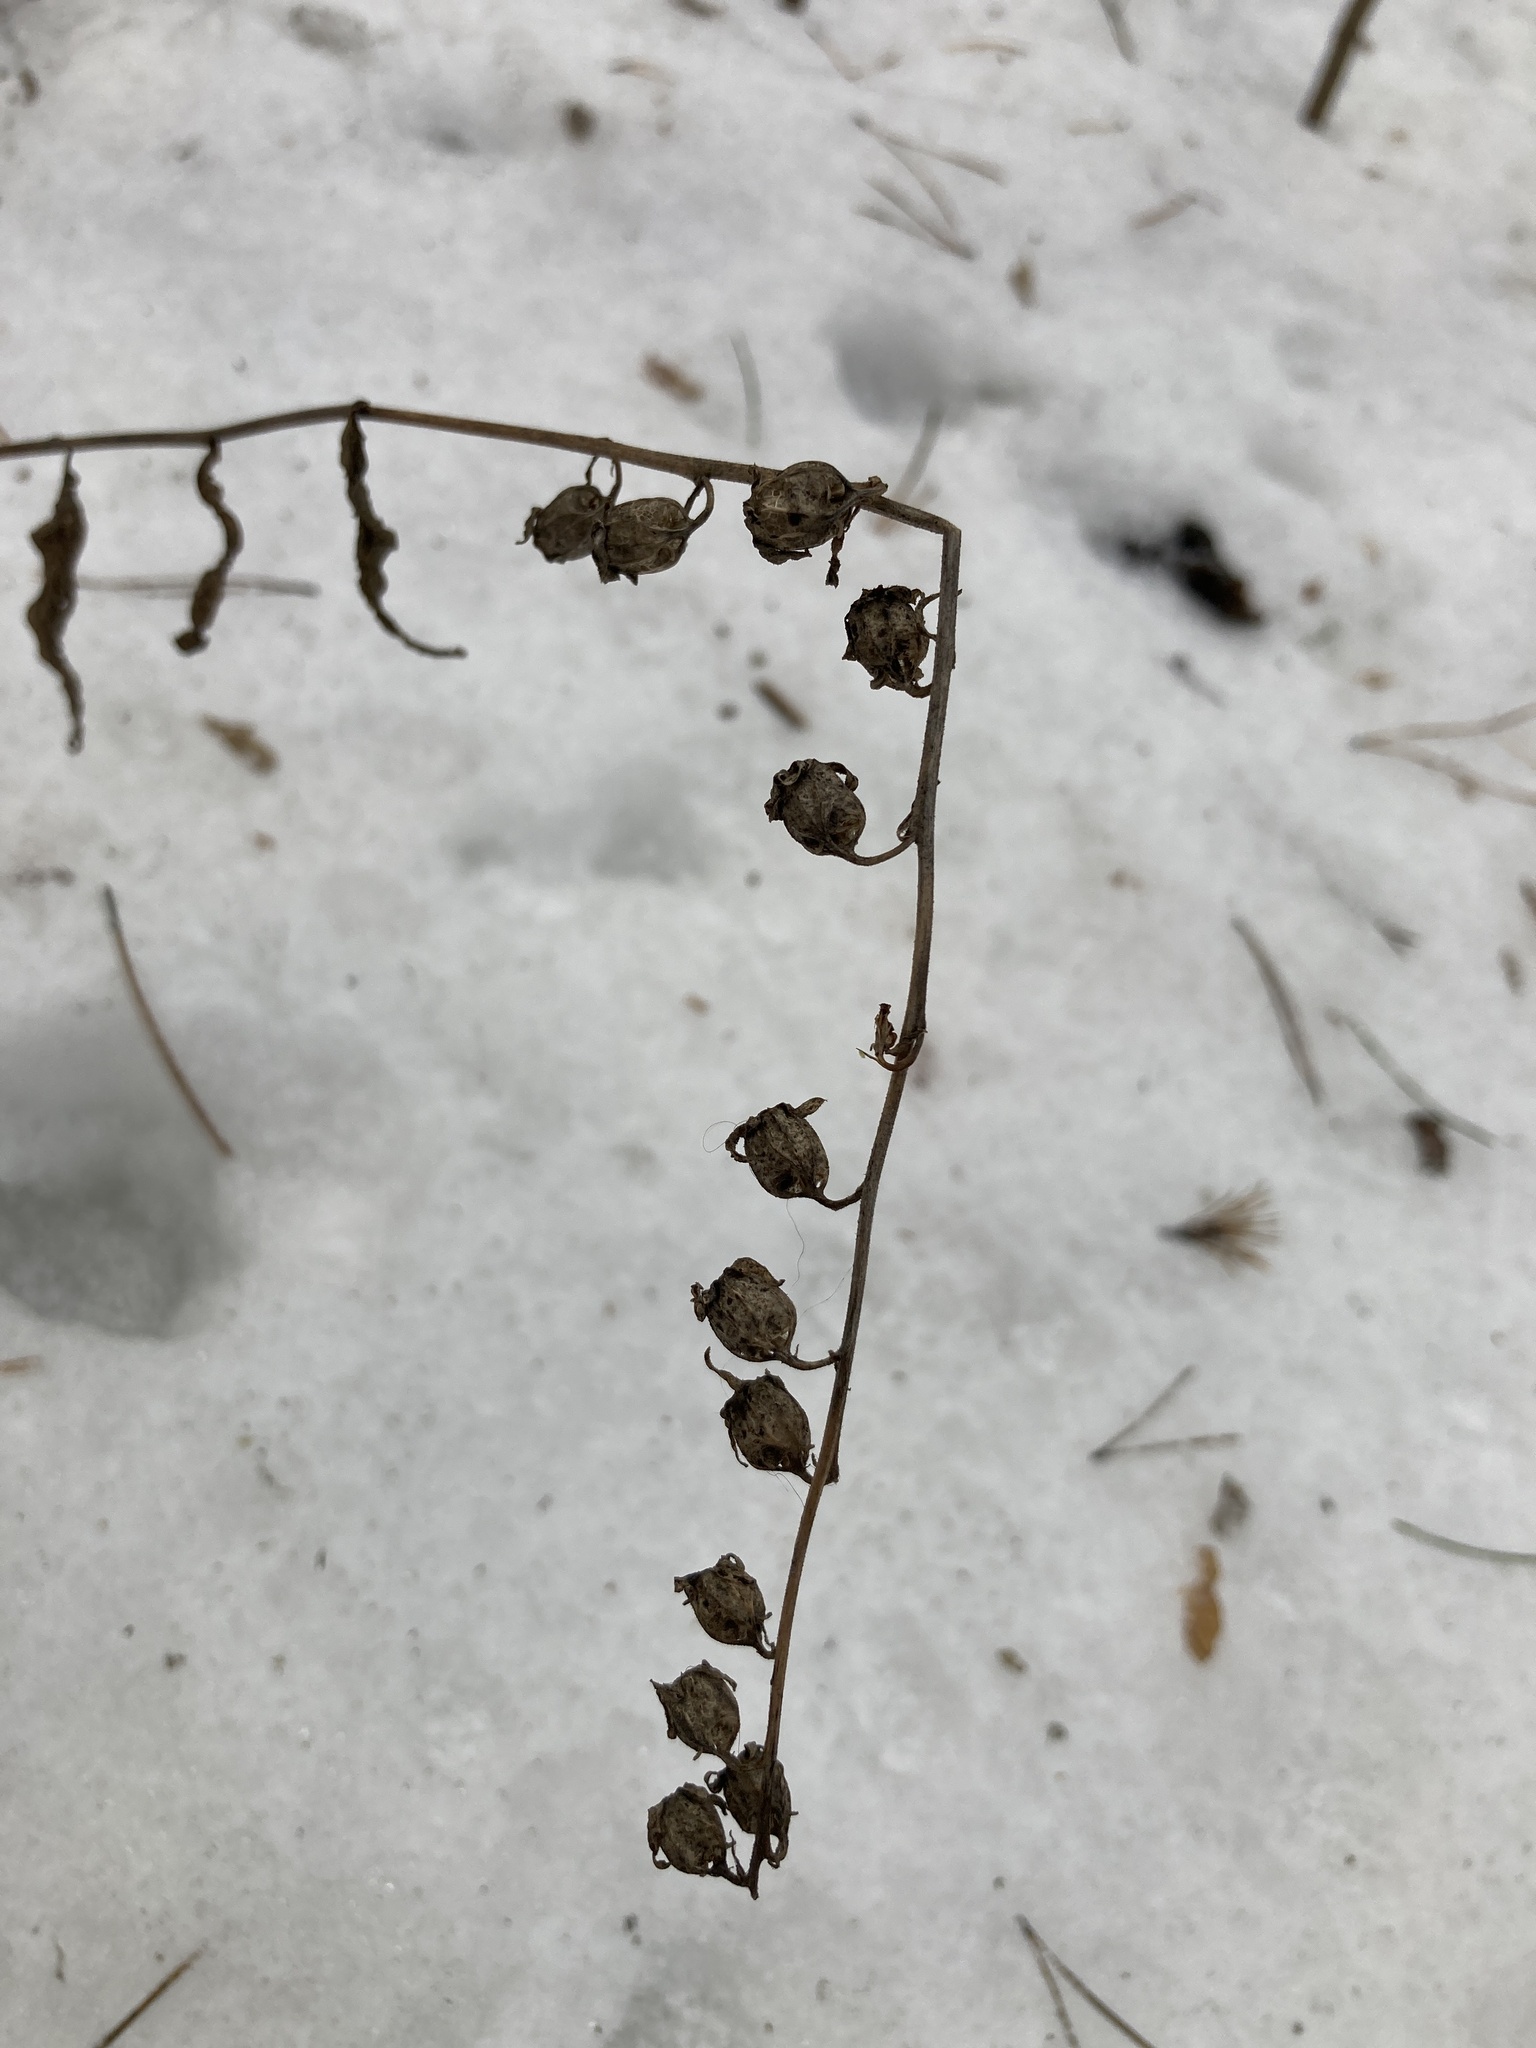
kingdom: Plantae
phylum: Tracheophyta
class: Magnoliopsida
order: Asterales
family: Campanulaceae
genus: Campanula
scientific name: Campanula rapunculoides
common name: Creeping bellflower
